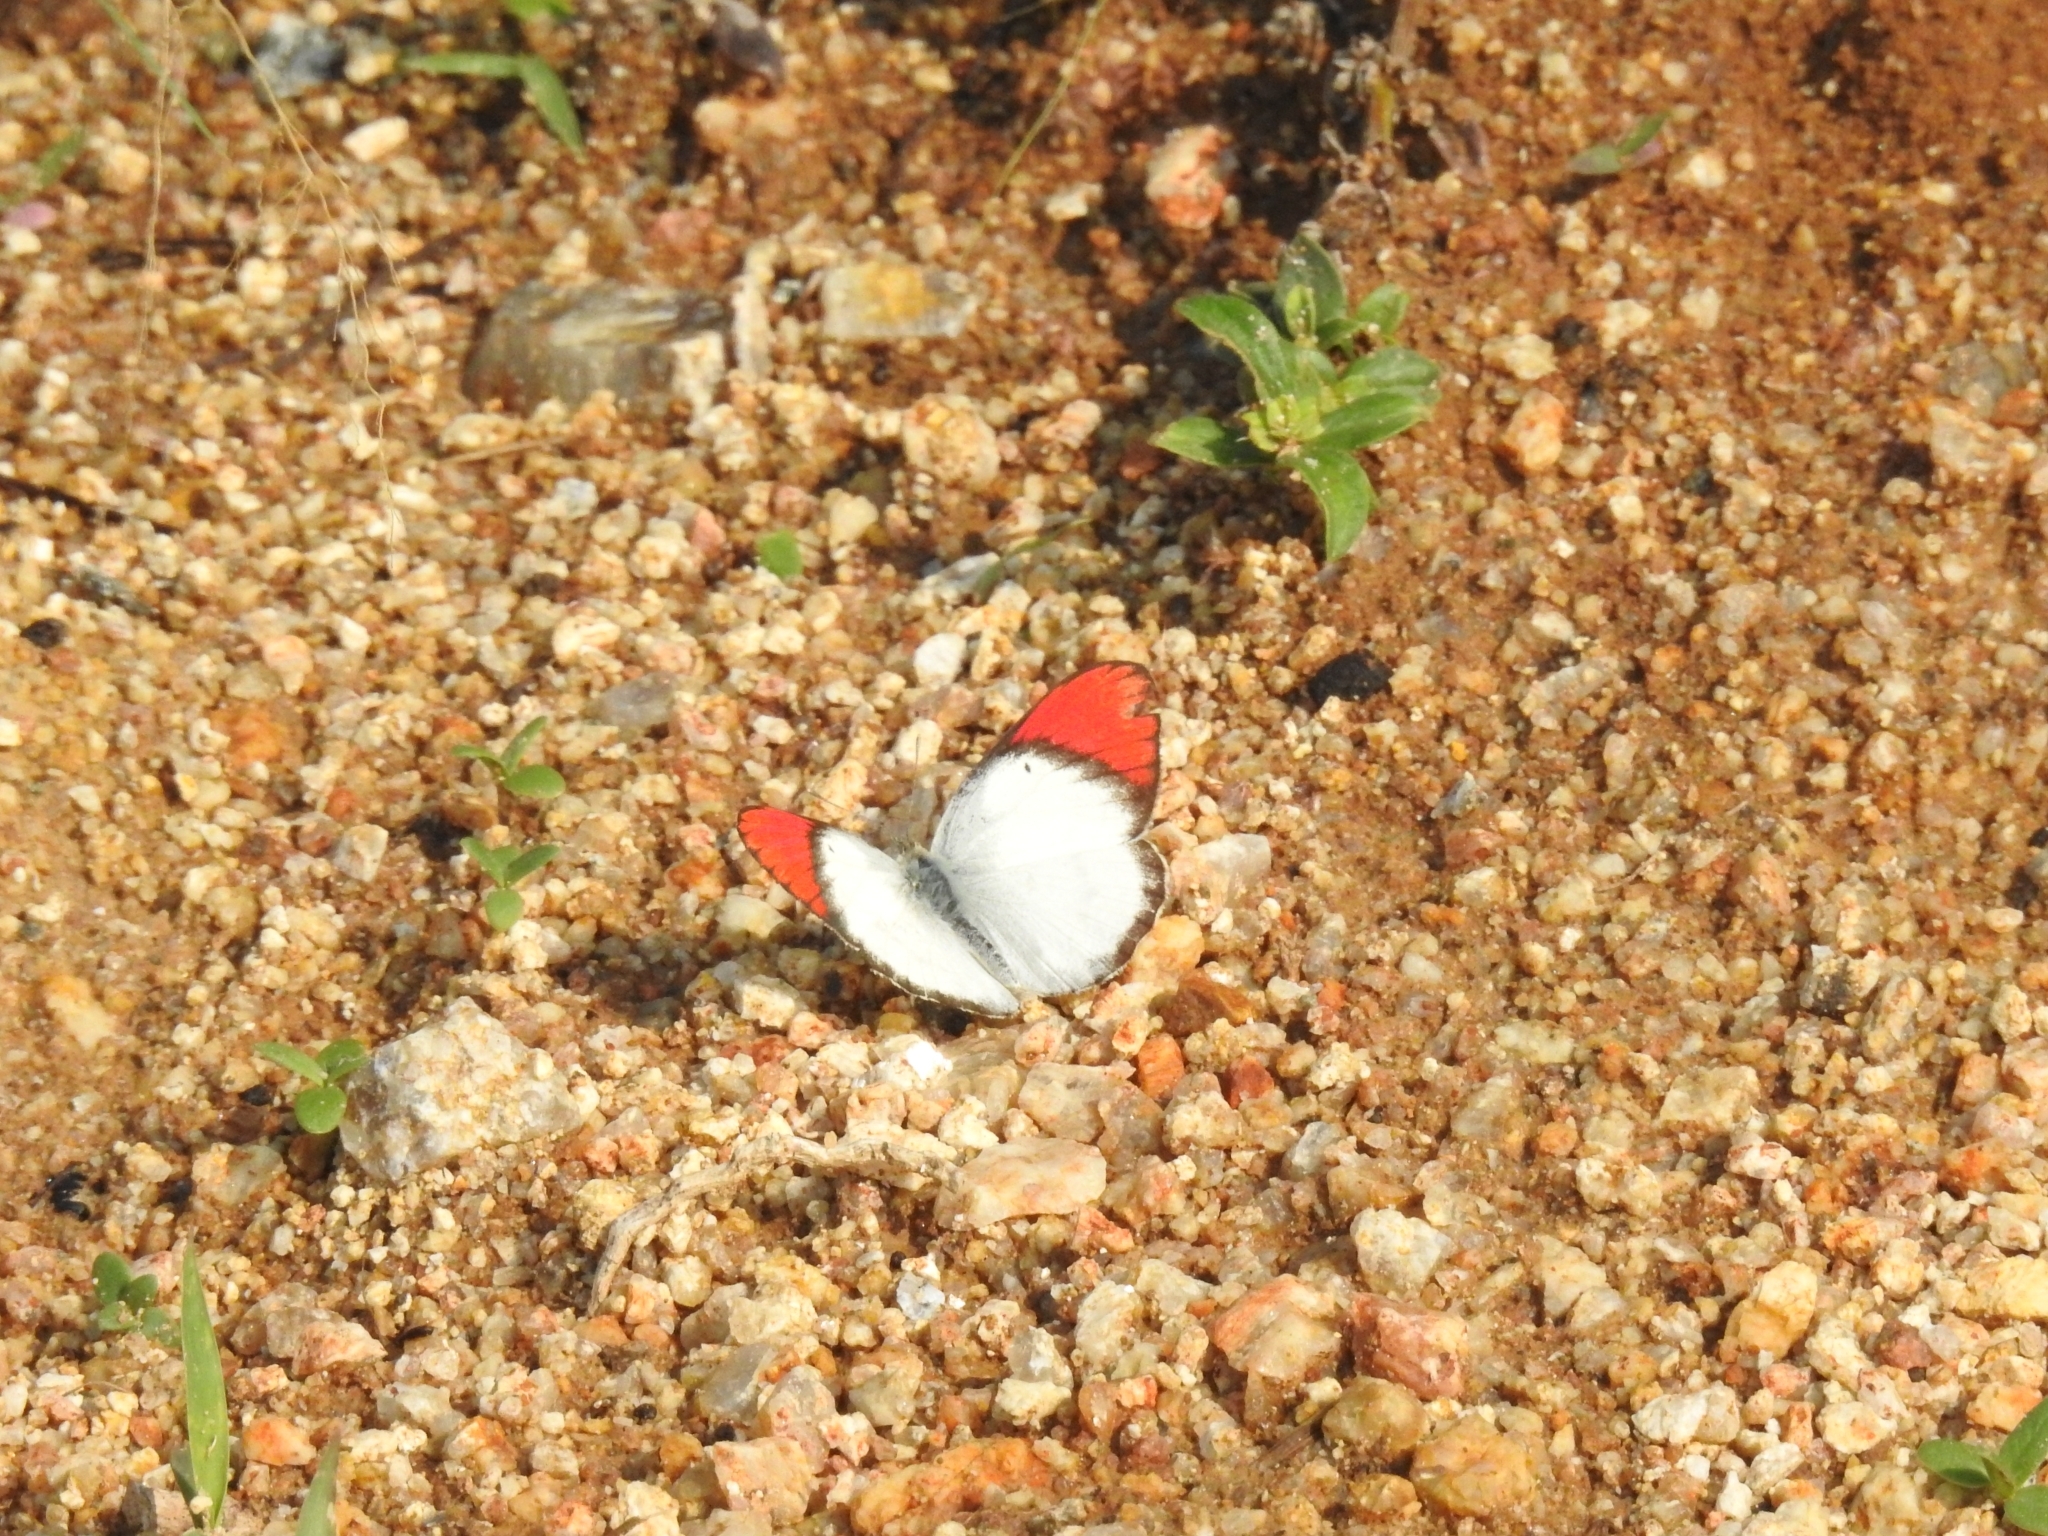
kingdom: Animalia
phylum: Arthropoda
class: Insecta
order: Lepidoptera
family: Pieridae
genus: Colotis
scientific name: Colotis danae
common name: Crimson tip
